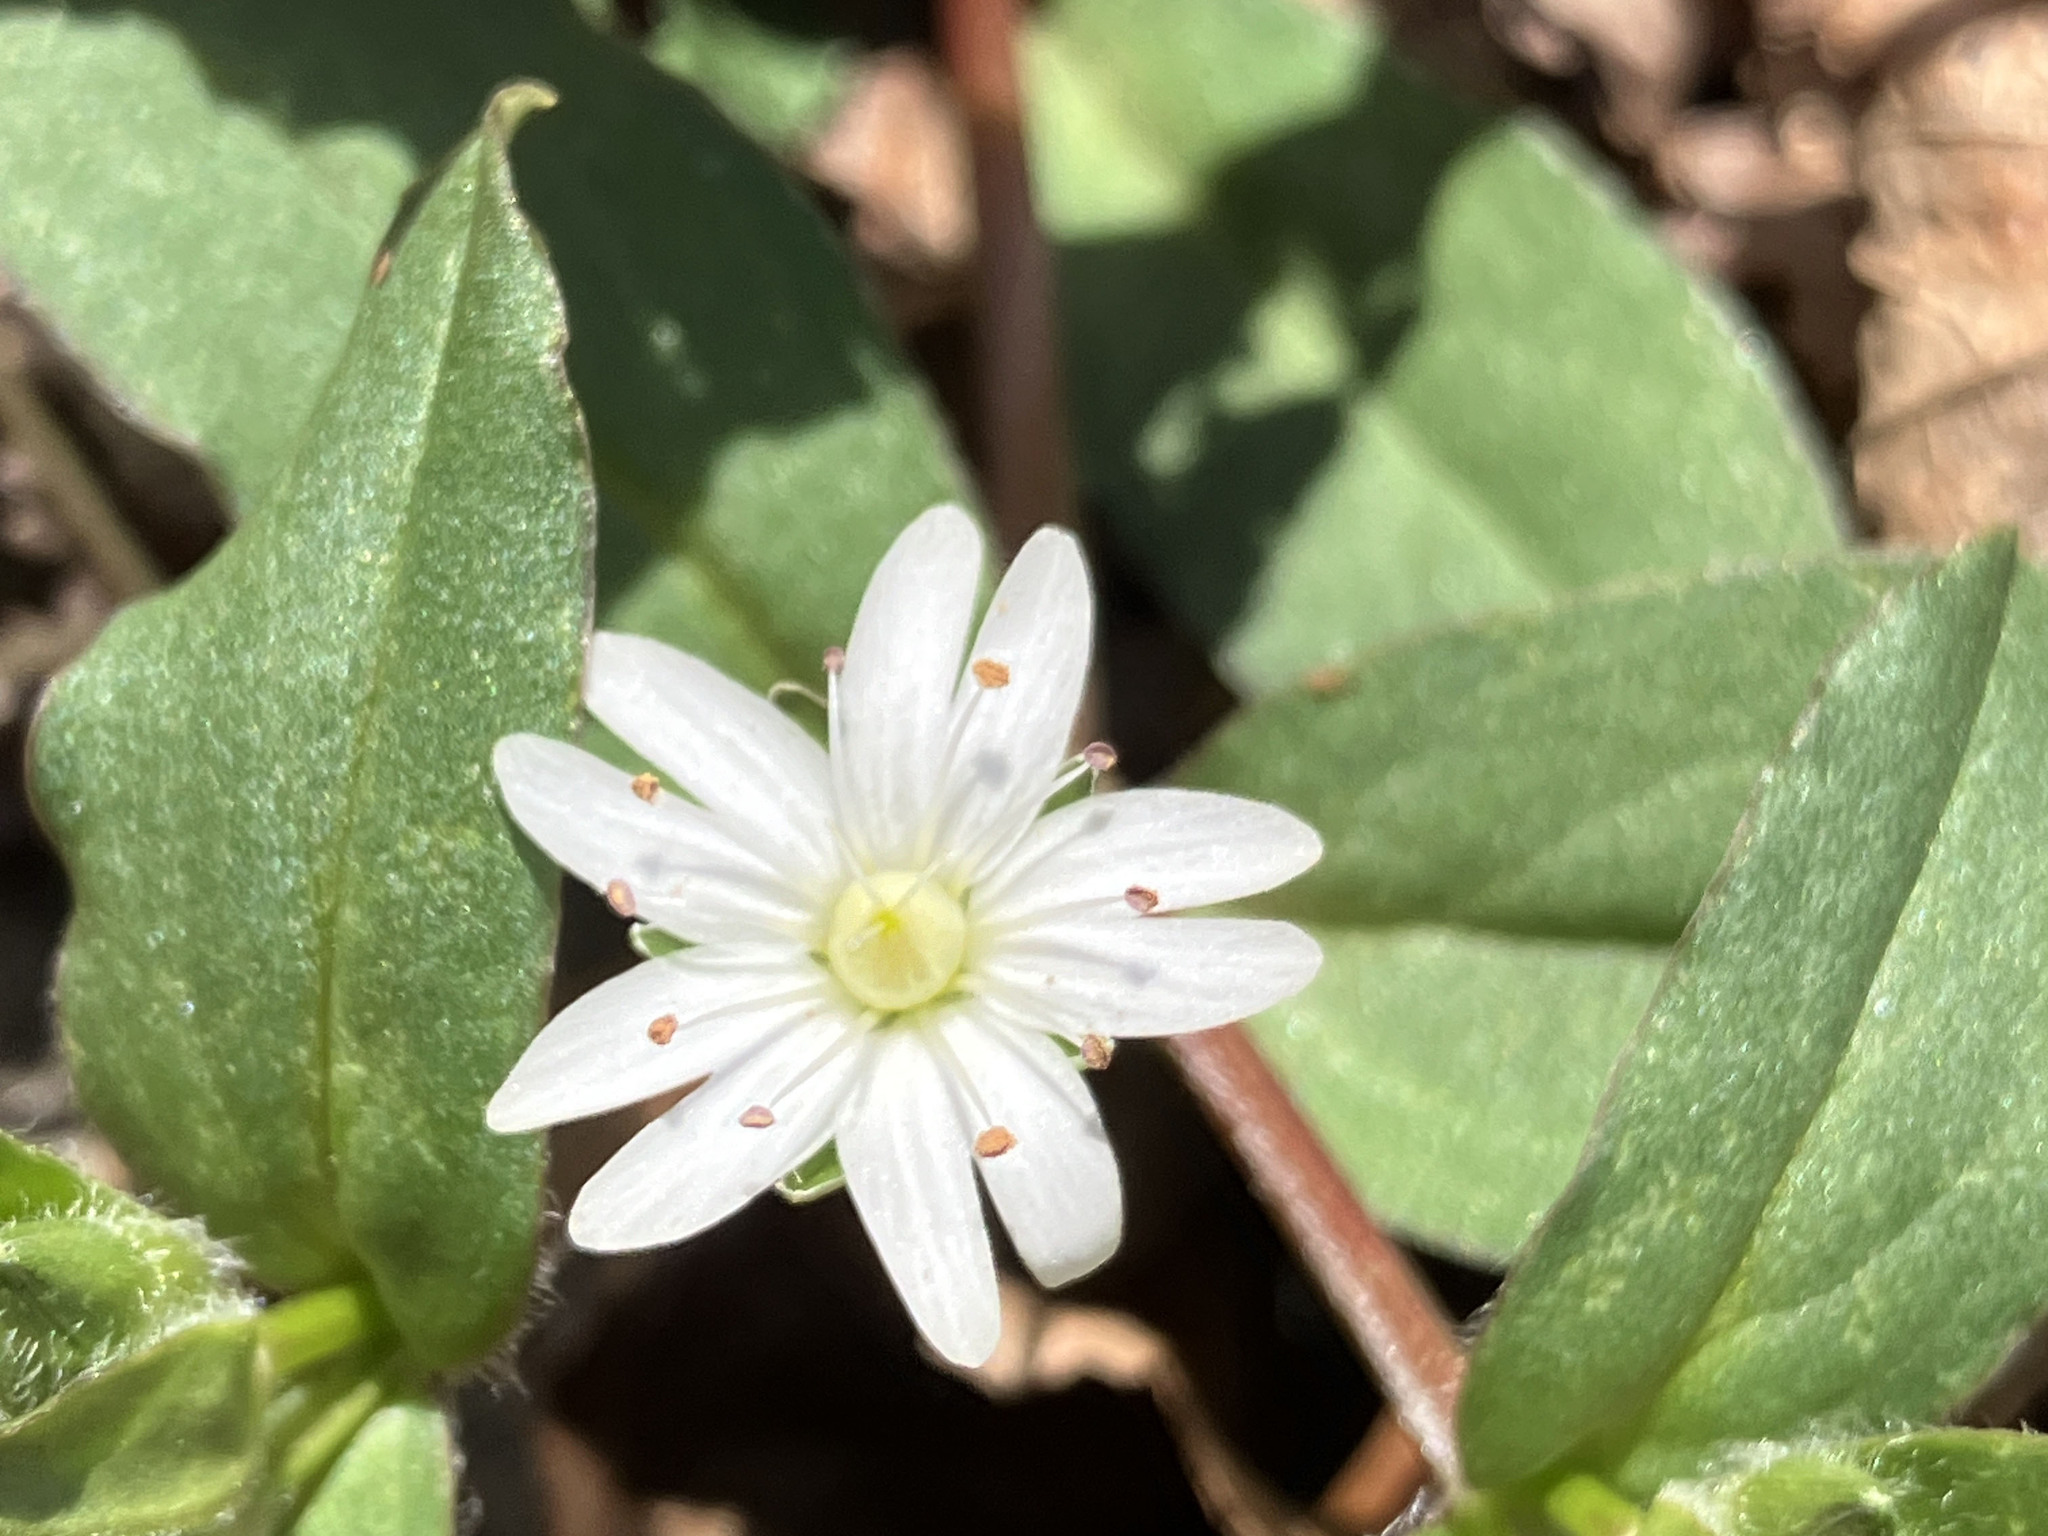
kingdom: Plantae
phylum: Tracheophyta
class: Magnoliopsida
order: Caryophyllales
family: Caryophyllaceae
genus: Stellaria
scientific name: Stellaria pubera
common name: Star chickweed
